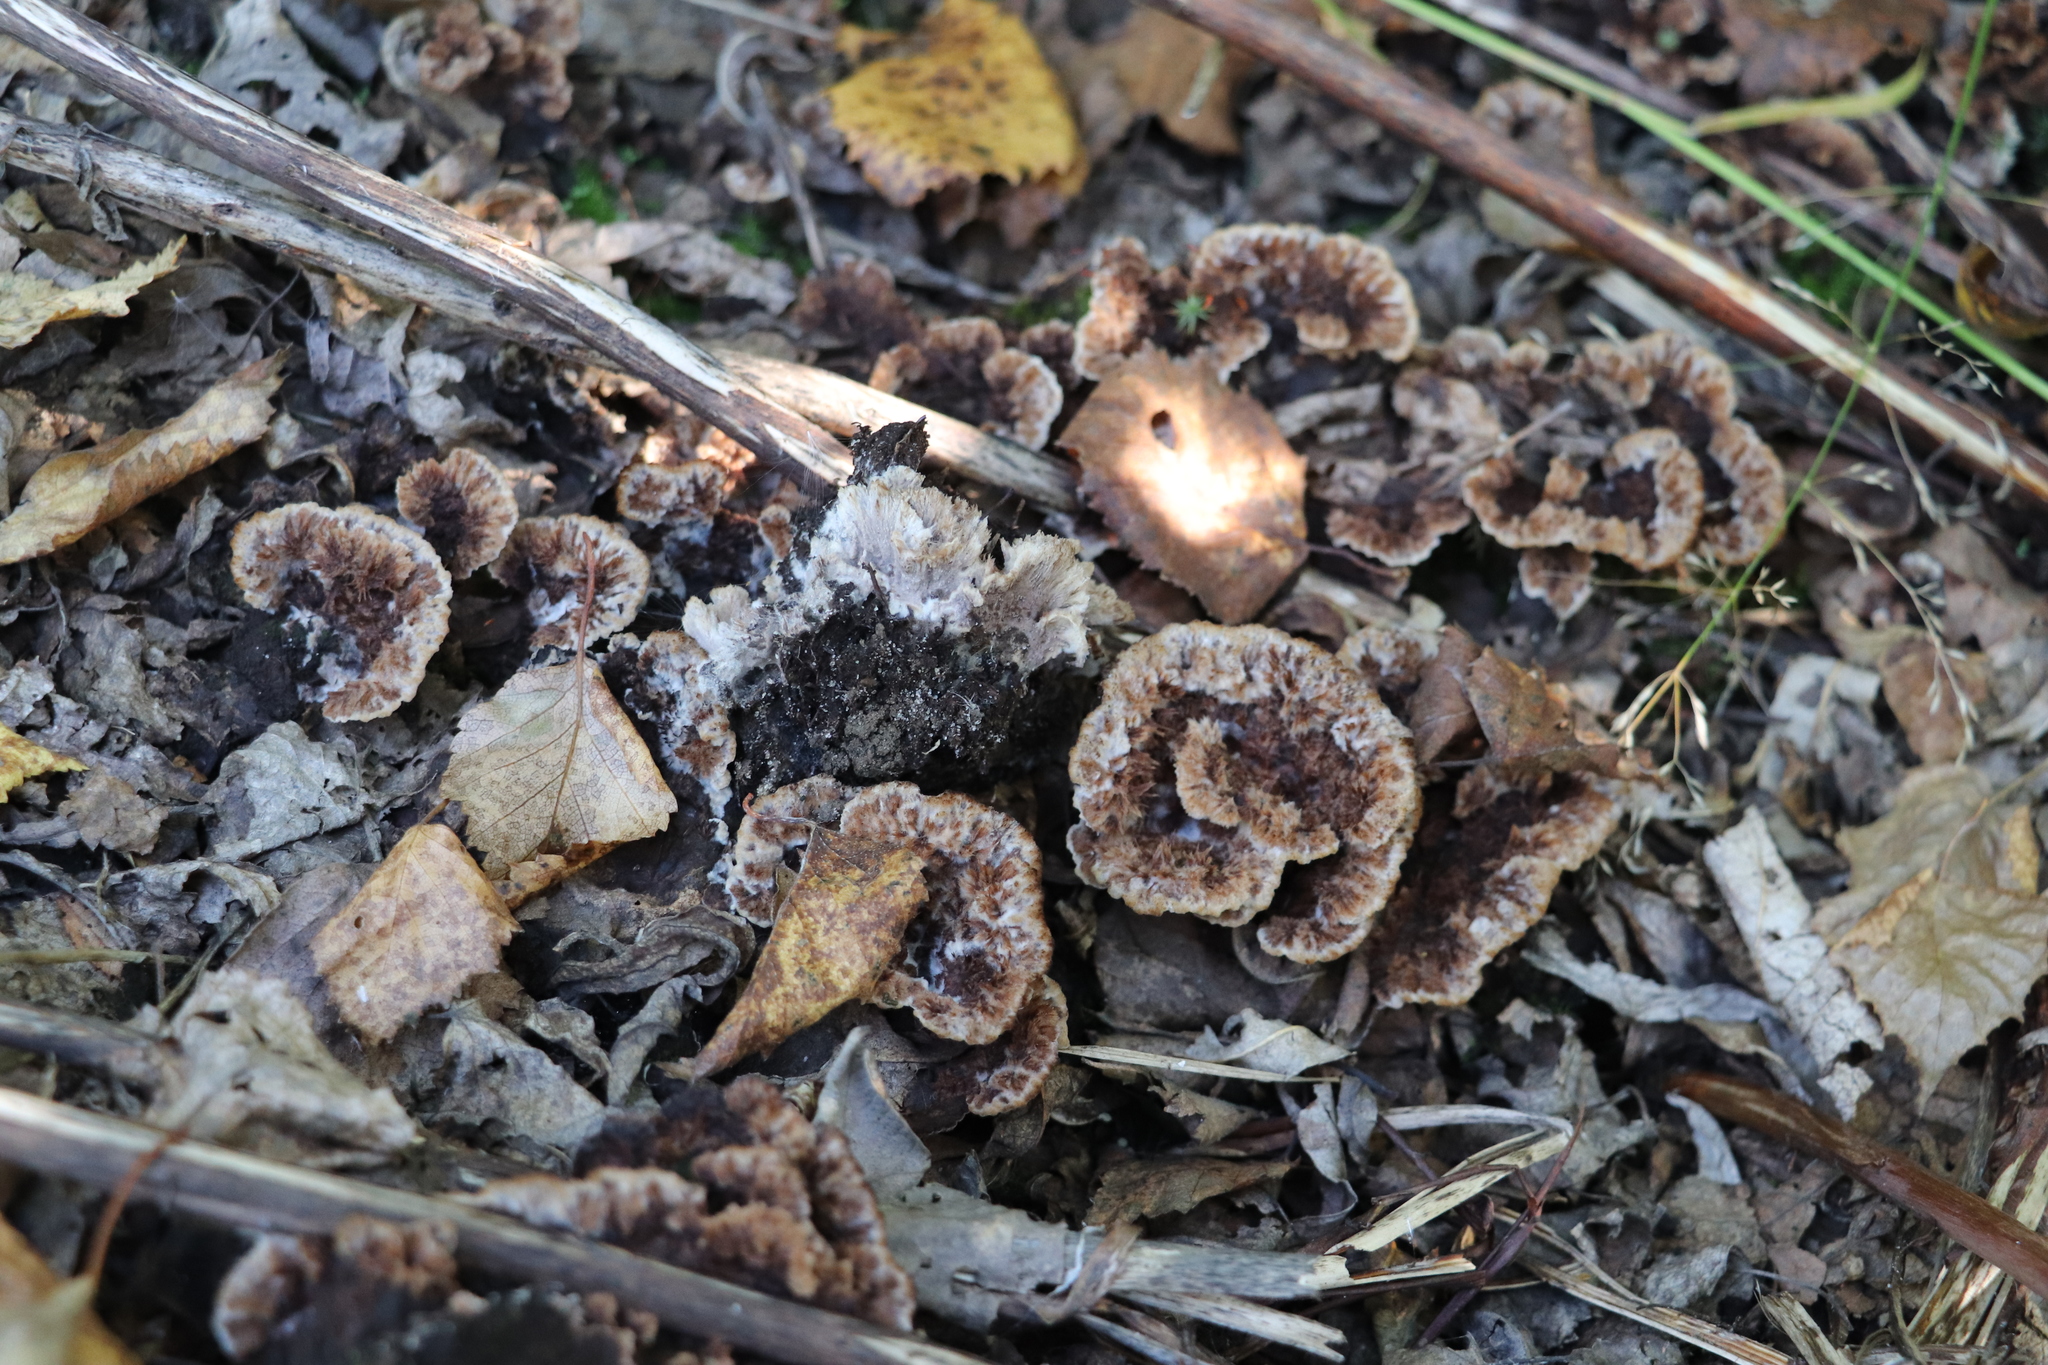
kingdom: Fungi
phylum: Basidiomycota
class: Agaricomycetes
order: Thelephorales
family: Thelephoraceae
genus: Thelephora
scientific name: Thelephora terrestris
